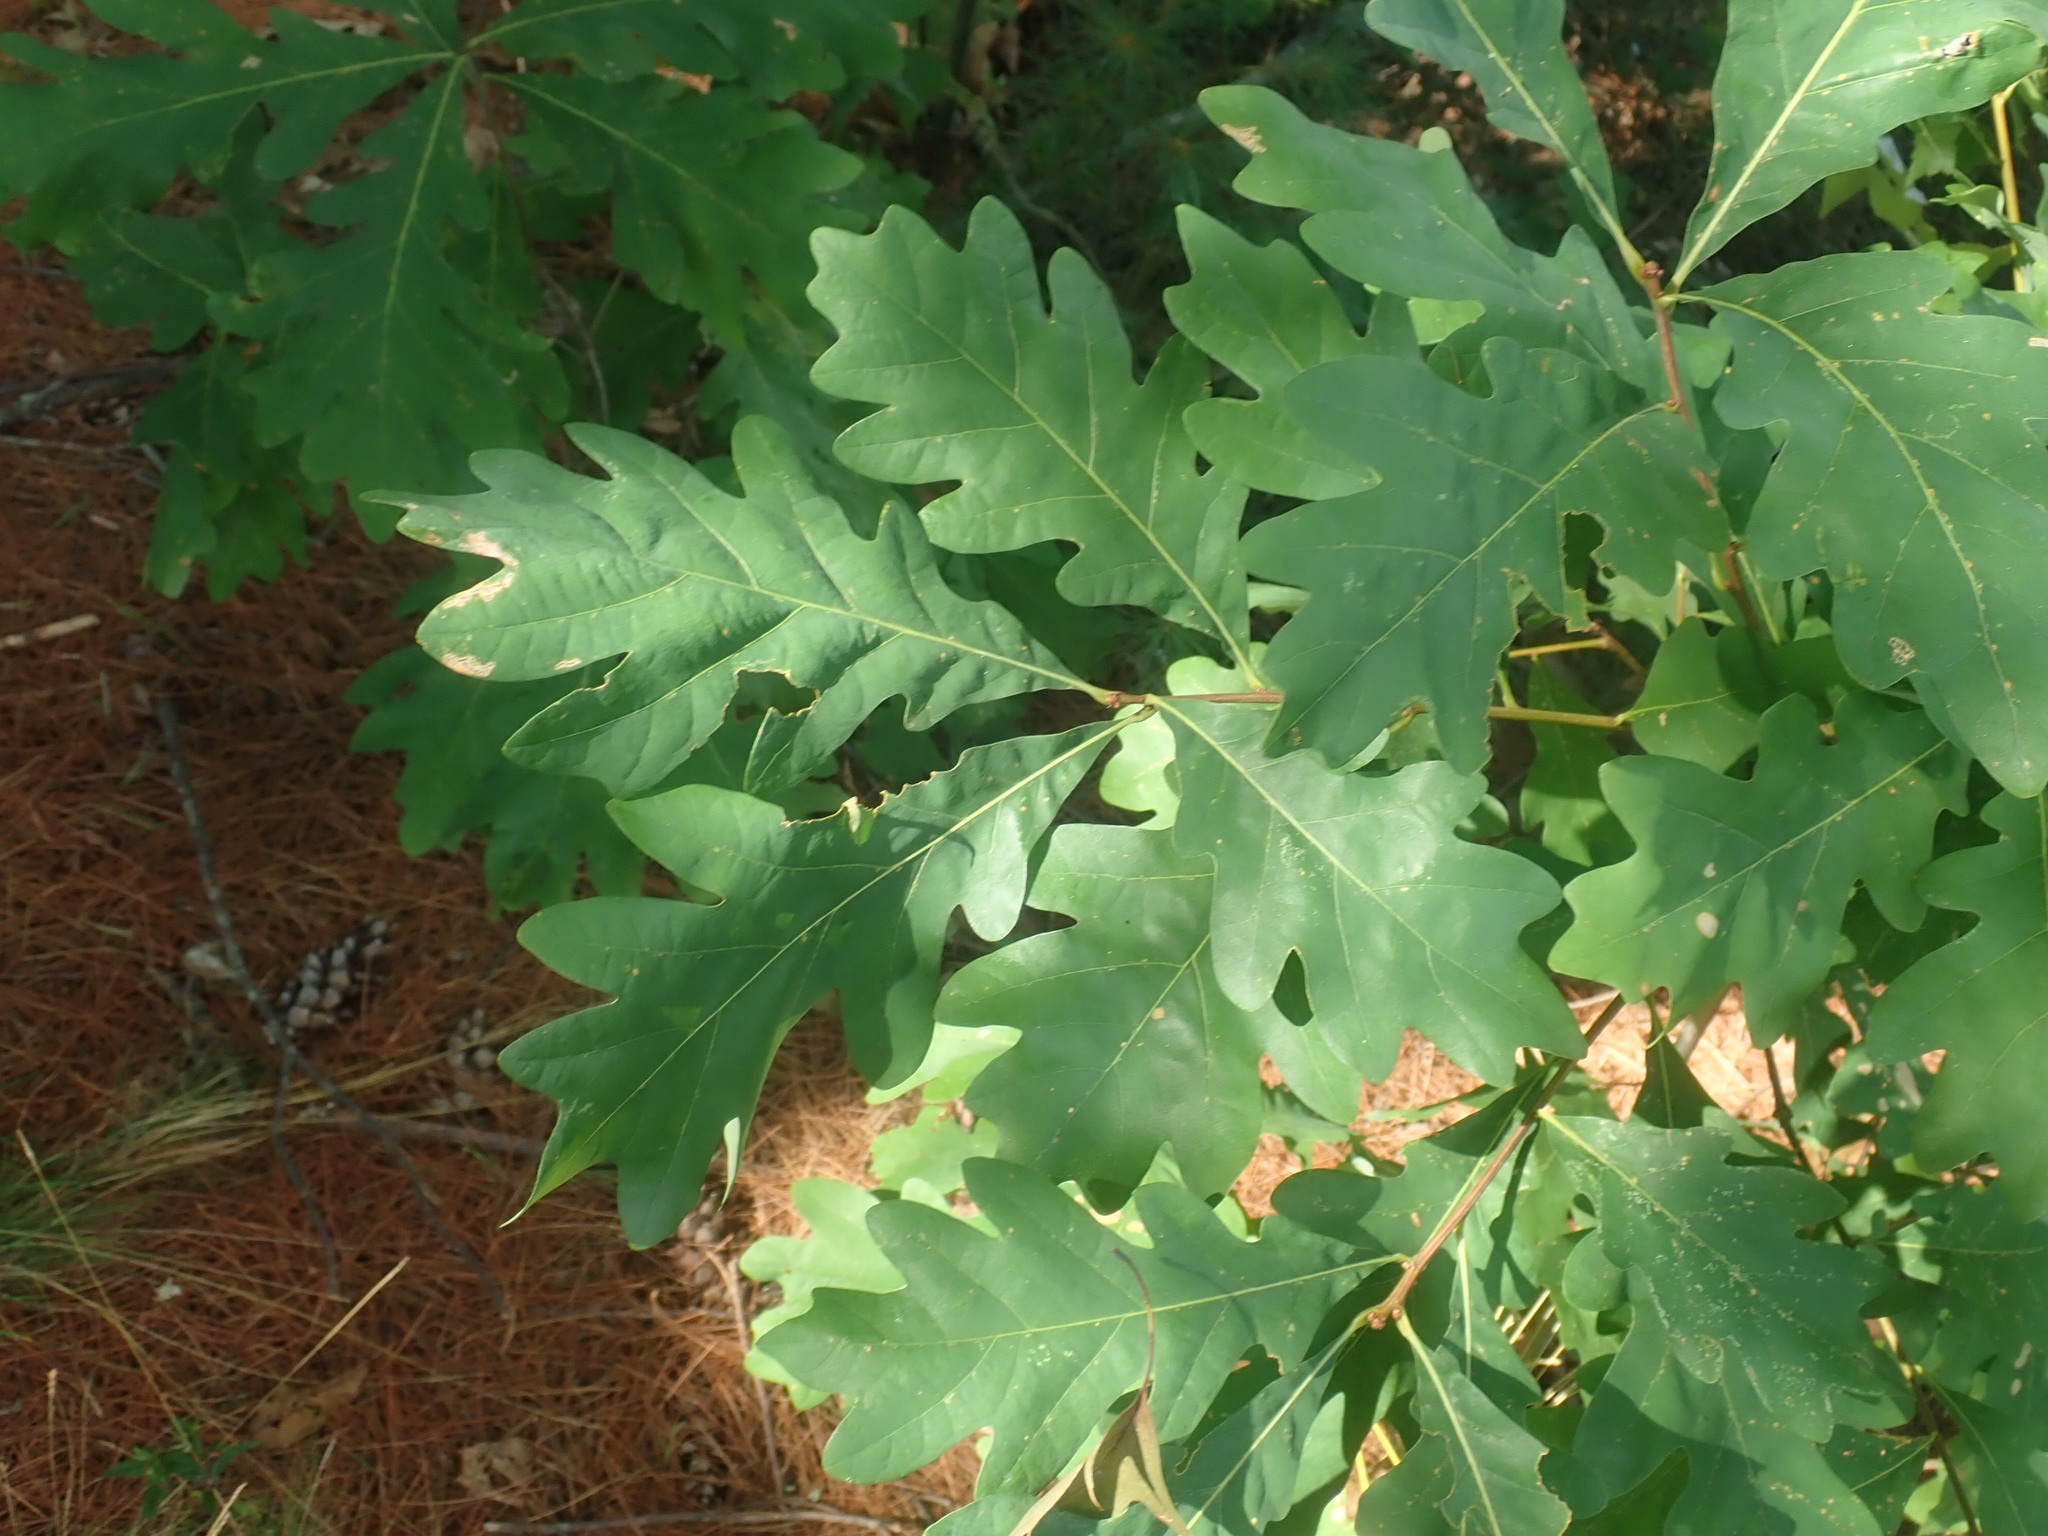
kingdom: Plantae
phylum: Tracheophyta
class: Magnoliopsida
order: Fagales
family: Fagaceae
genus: Quercus
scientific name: Quercus alba
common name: White oak
